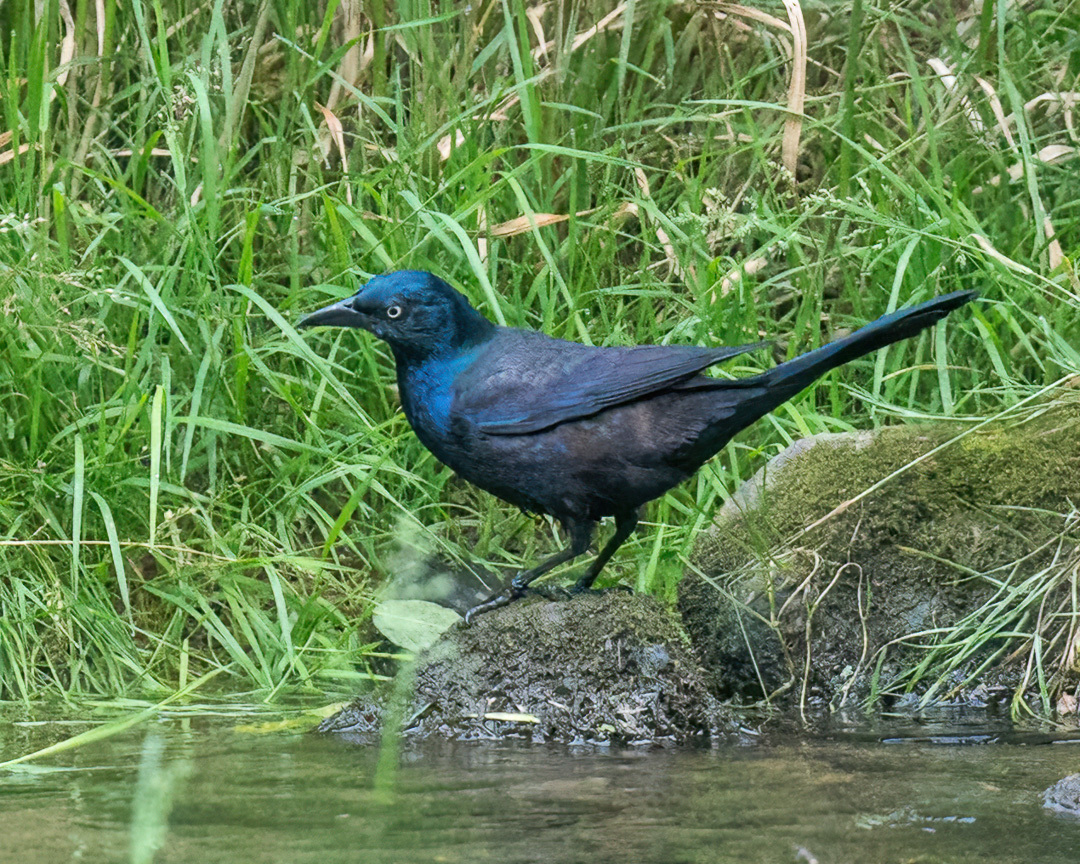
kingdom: Animalia
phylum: Chordata
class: Aves
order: Passeriformes
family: Icteridae
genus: Quiscalus
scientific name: Quiscalus quiscula
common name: Common grackle
